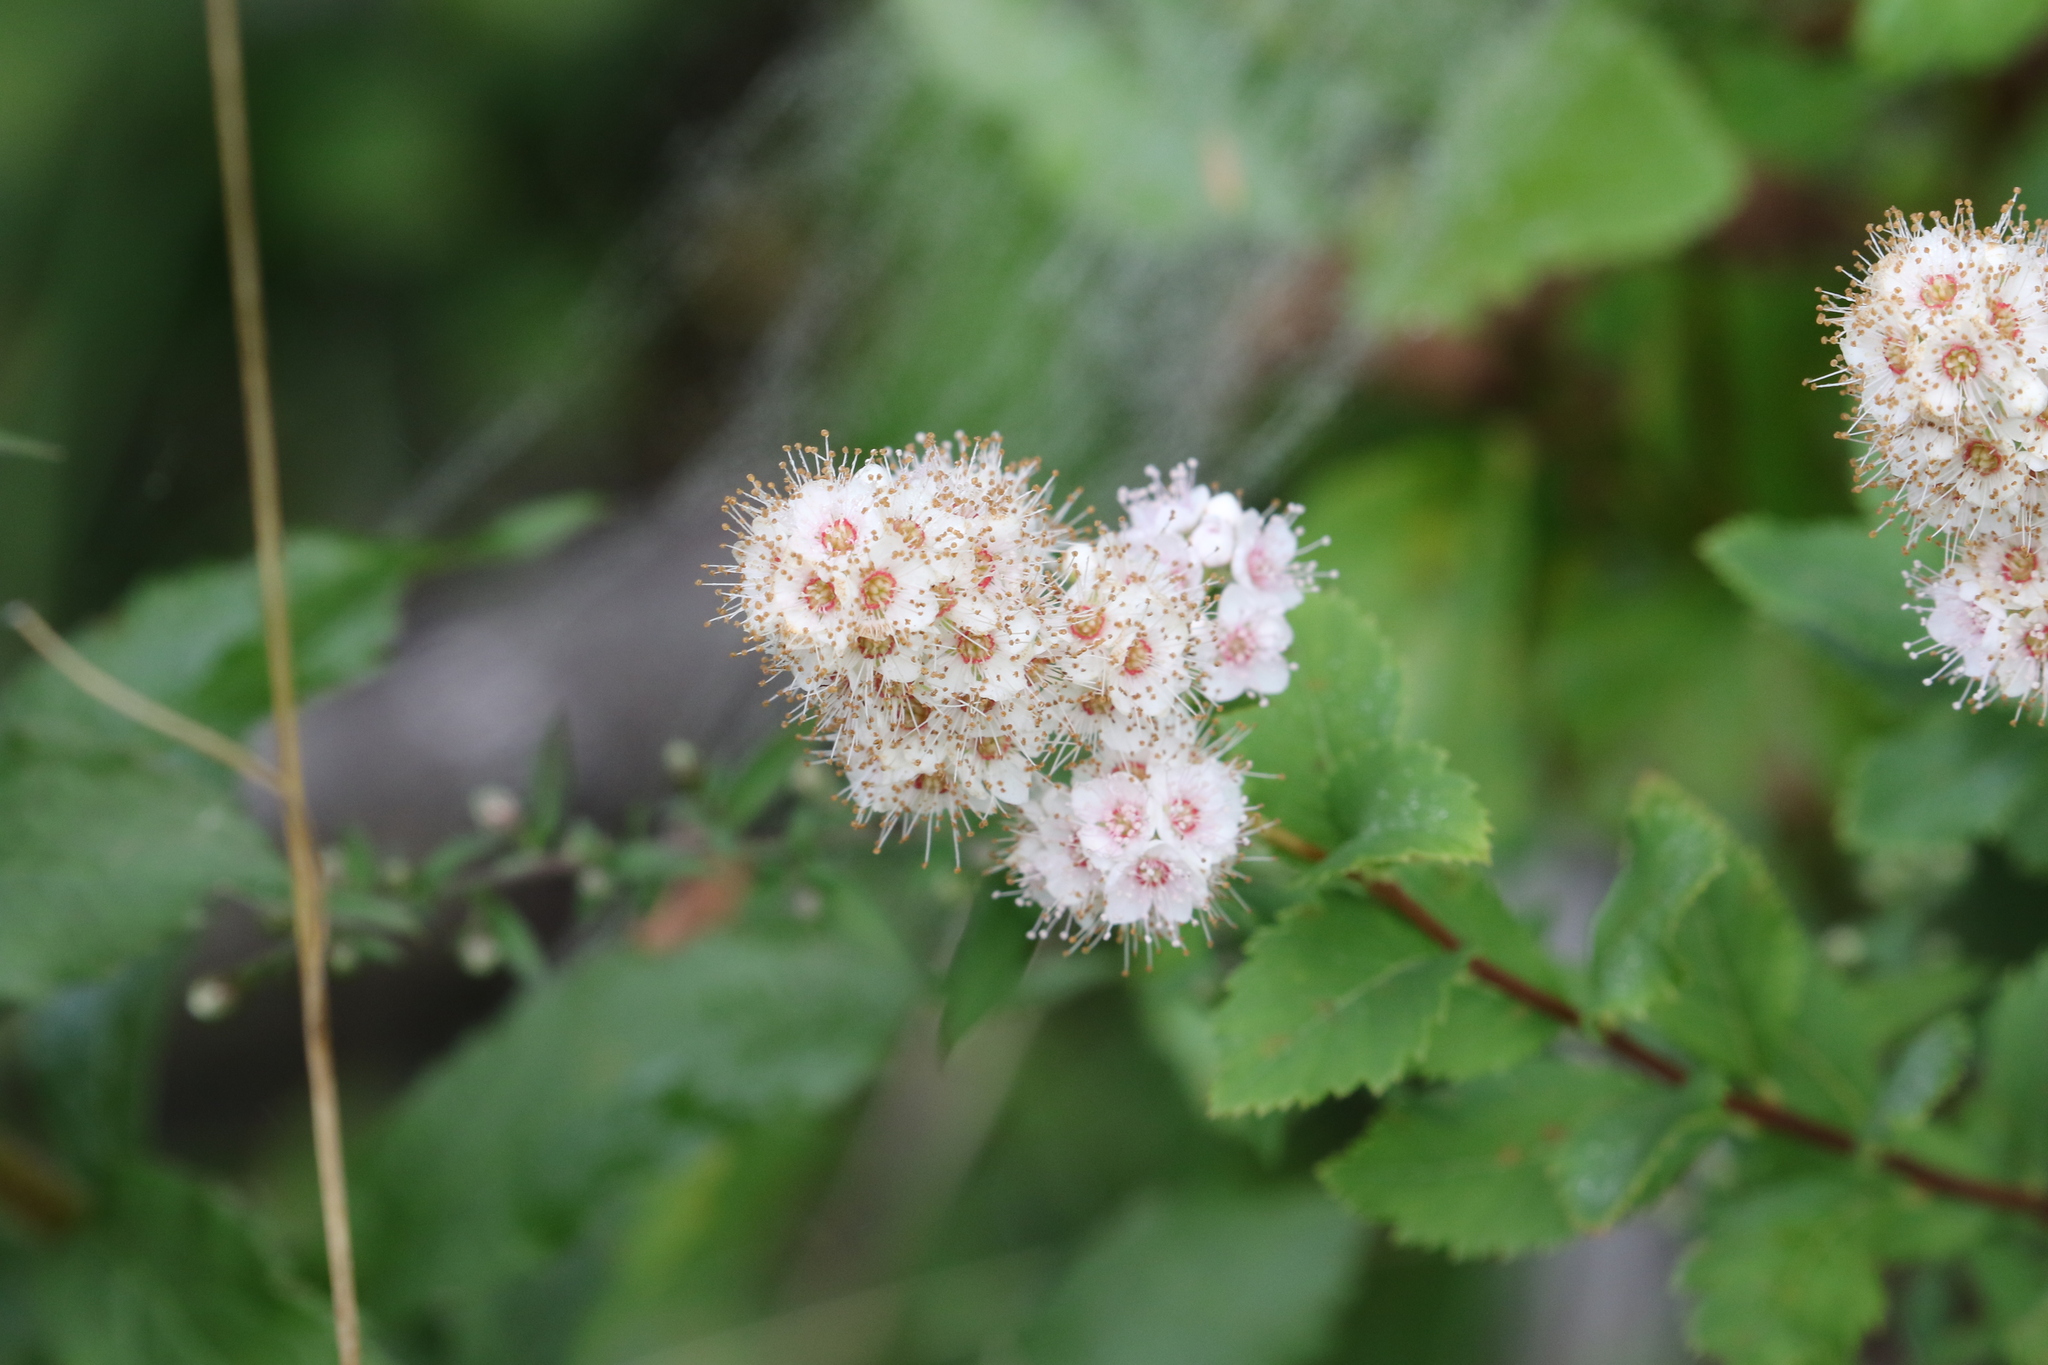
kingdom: Plantae
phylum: Tracheophyta
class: Magnoliopsida
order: Rosales
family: Rosaceae
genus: Spiraea
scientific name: Spiraea alba
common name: Pale bridewort
